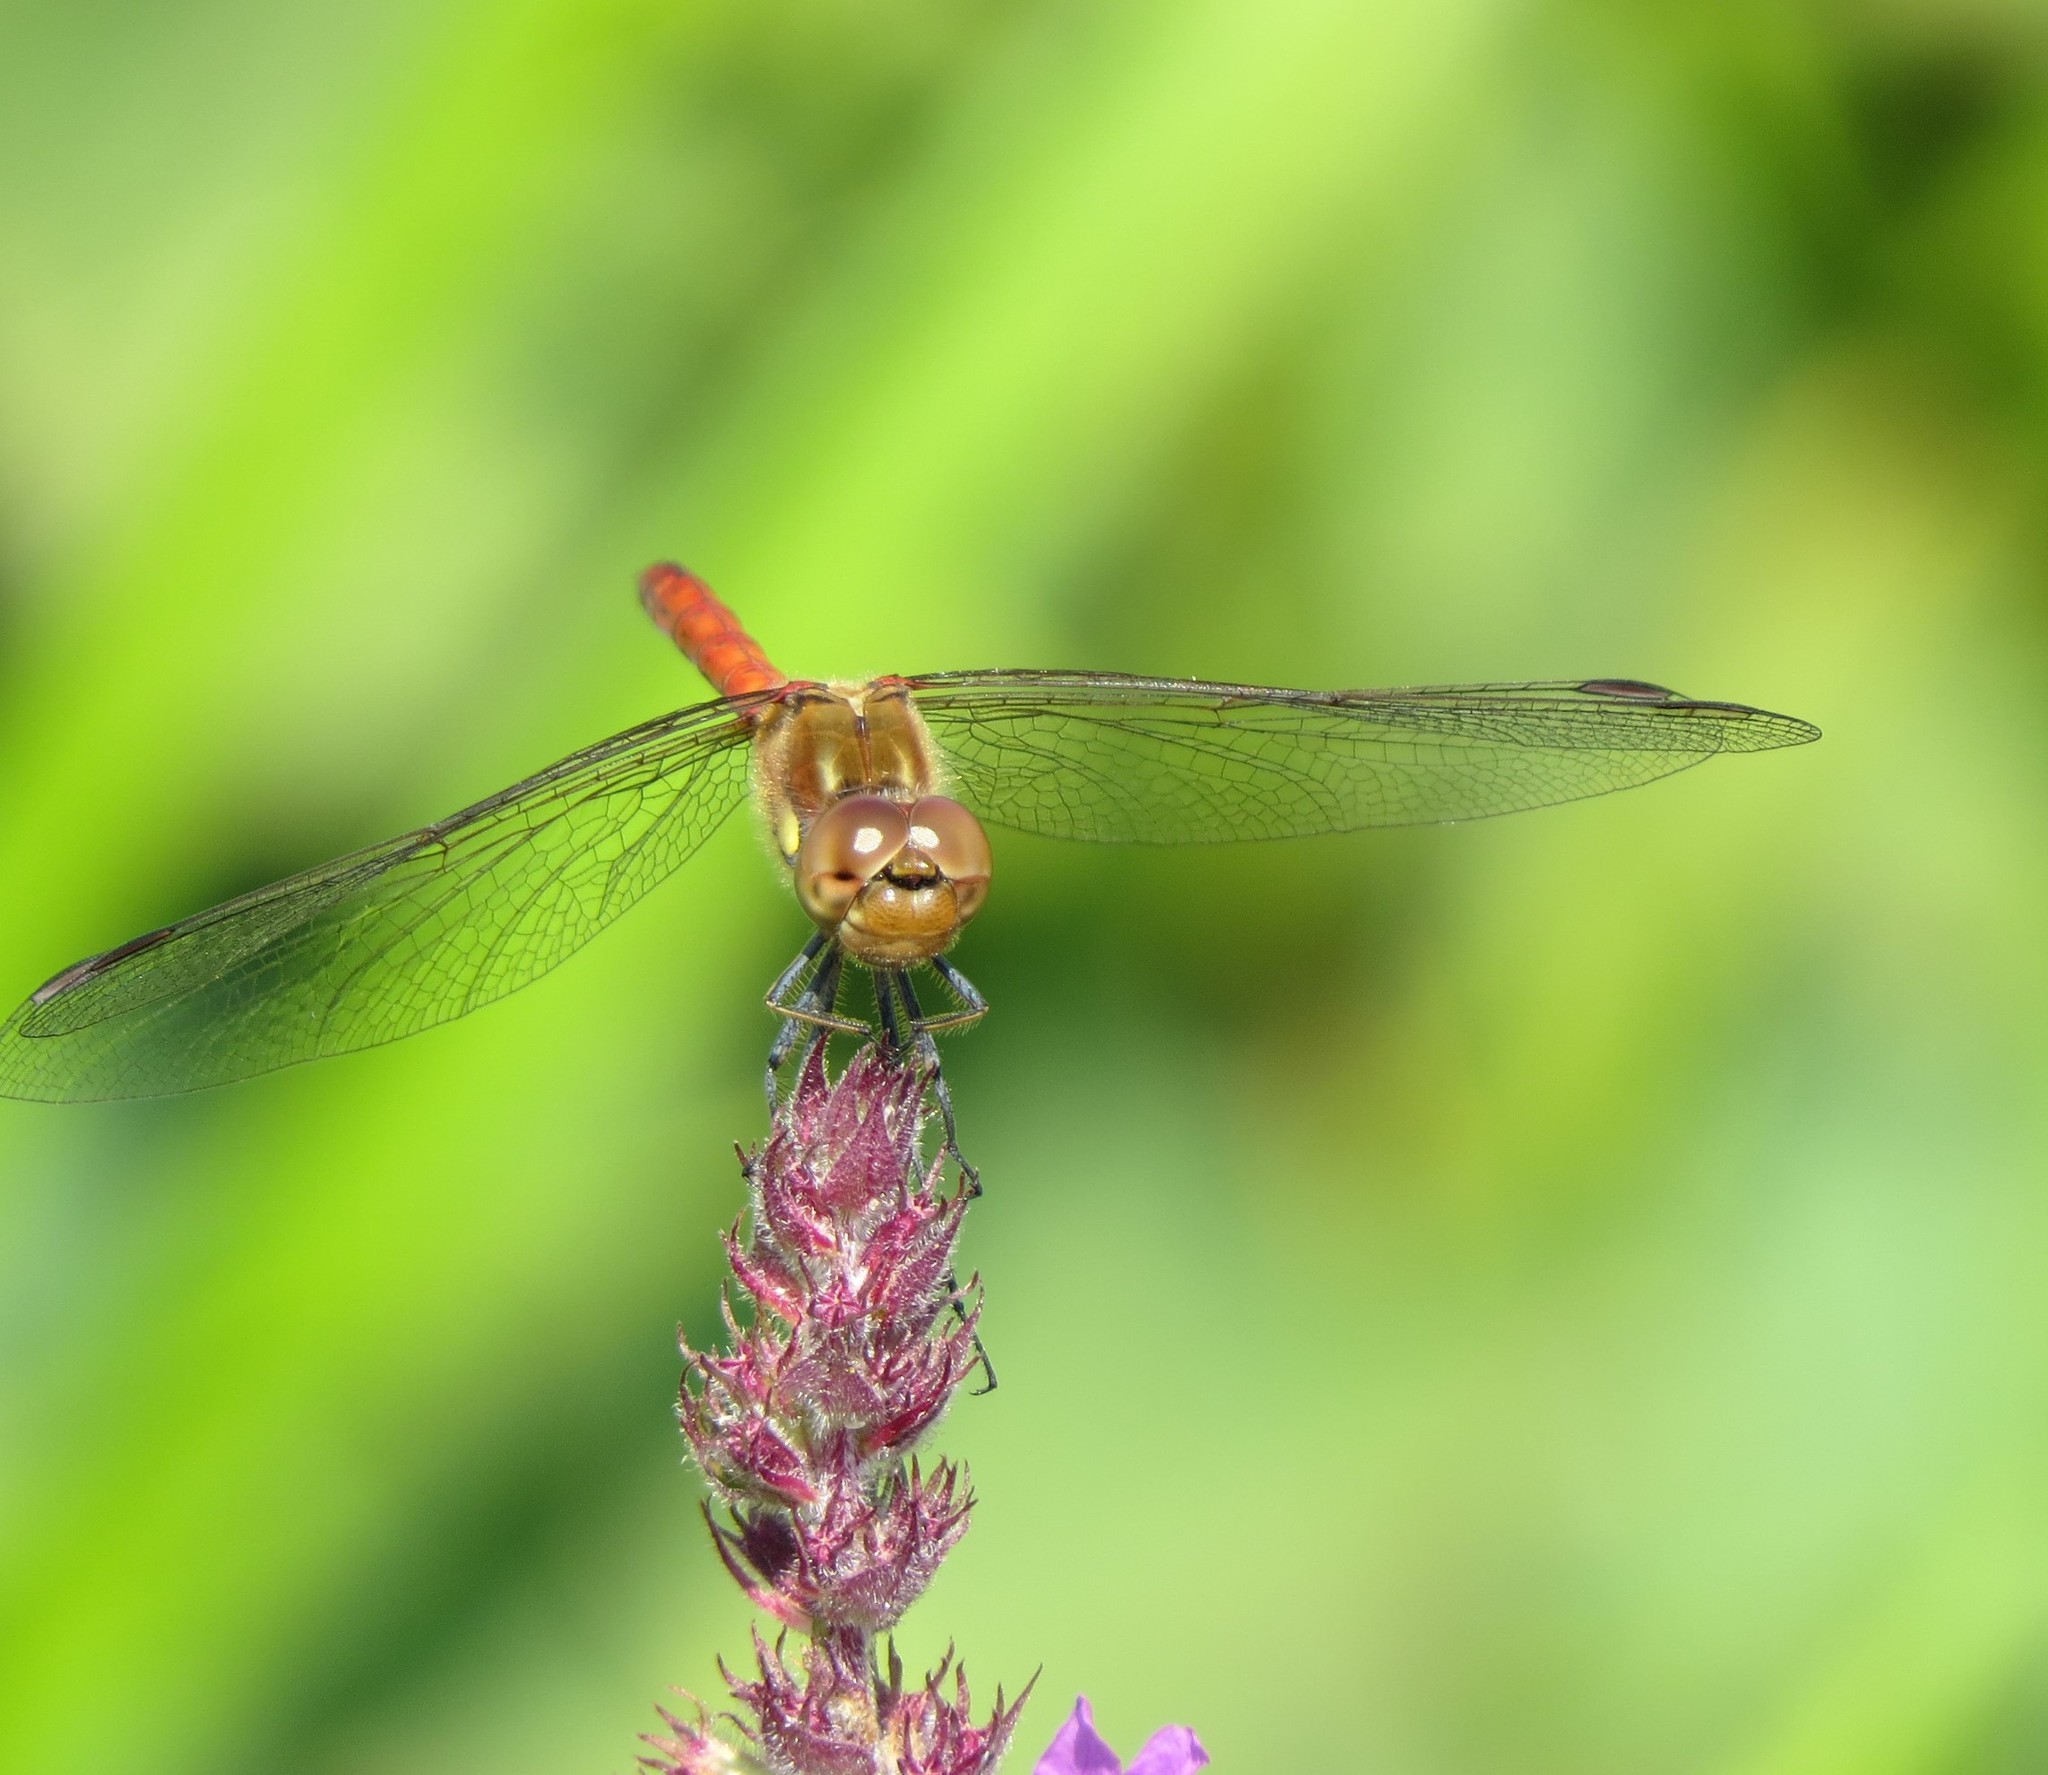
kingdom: Animalia
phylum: Arthropoda
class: Insecta
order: Odonata
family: Libellulidae
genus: Sympetrum
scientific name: Sympetrum striolatum
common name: Common darter
